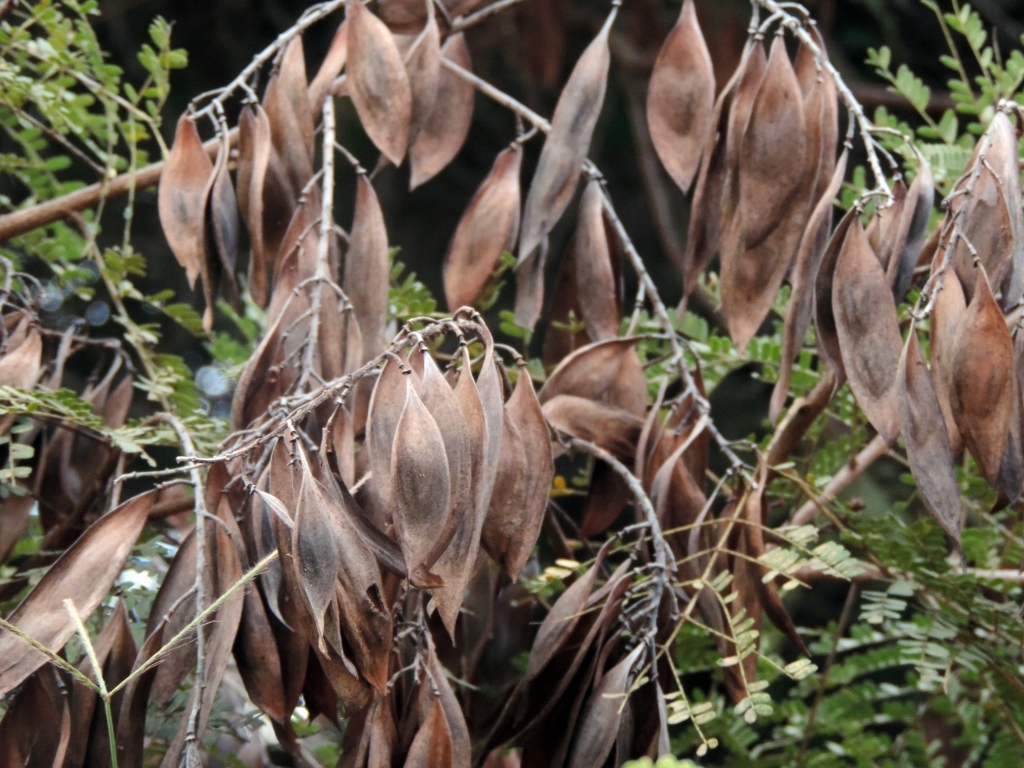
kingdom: Plantae
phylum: Tracheophyta
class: Magnoliopsida
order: Fabales
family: Fabaceae
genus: Peltophorum
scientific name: Peltophorum africanum
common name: African black wattle
